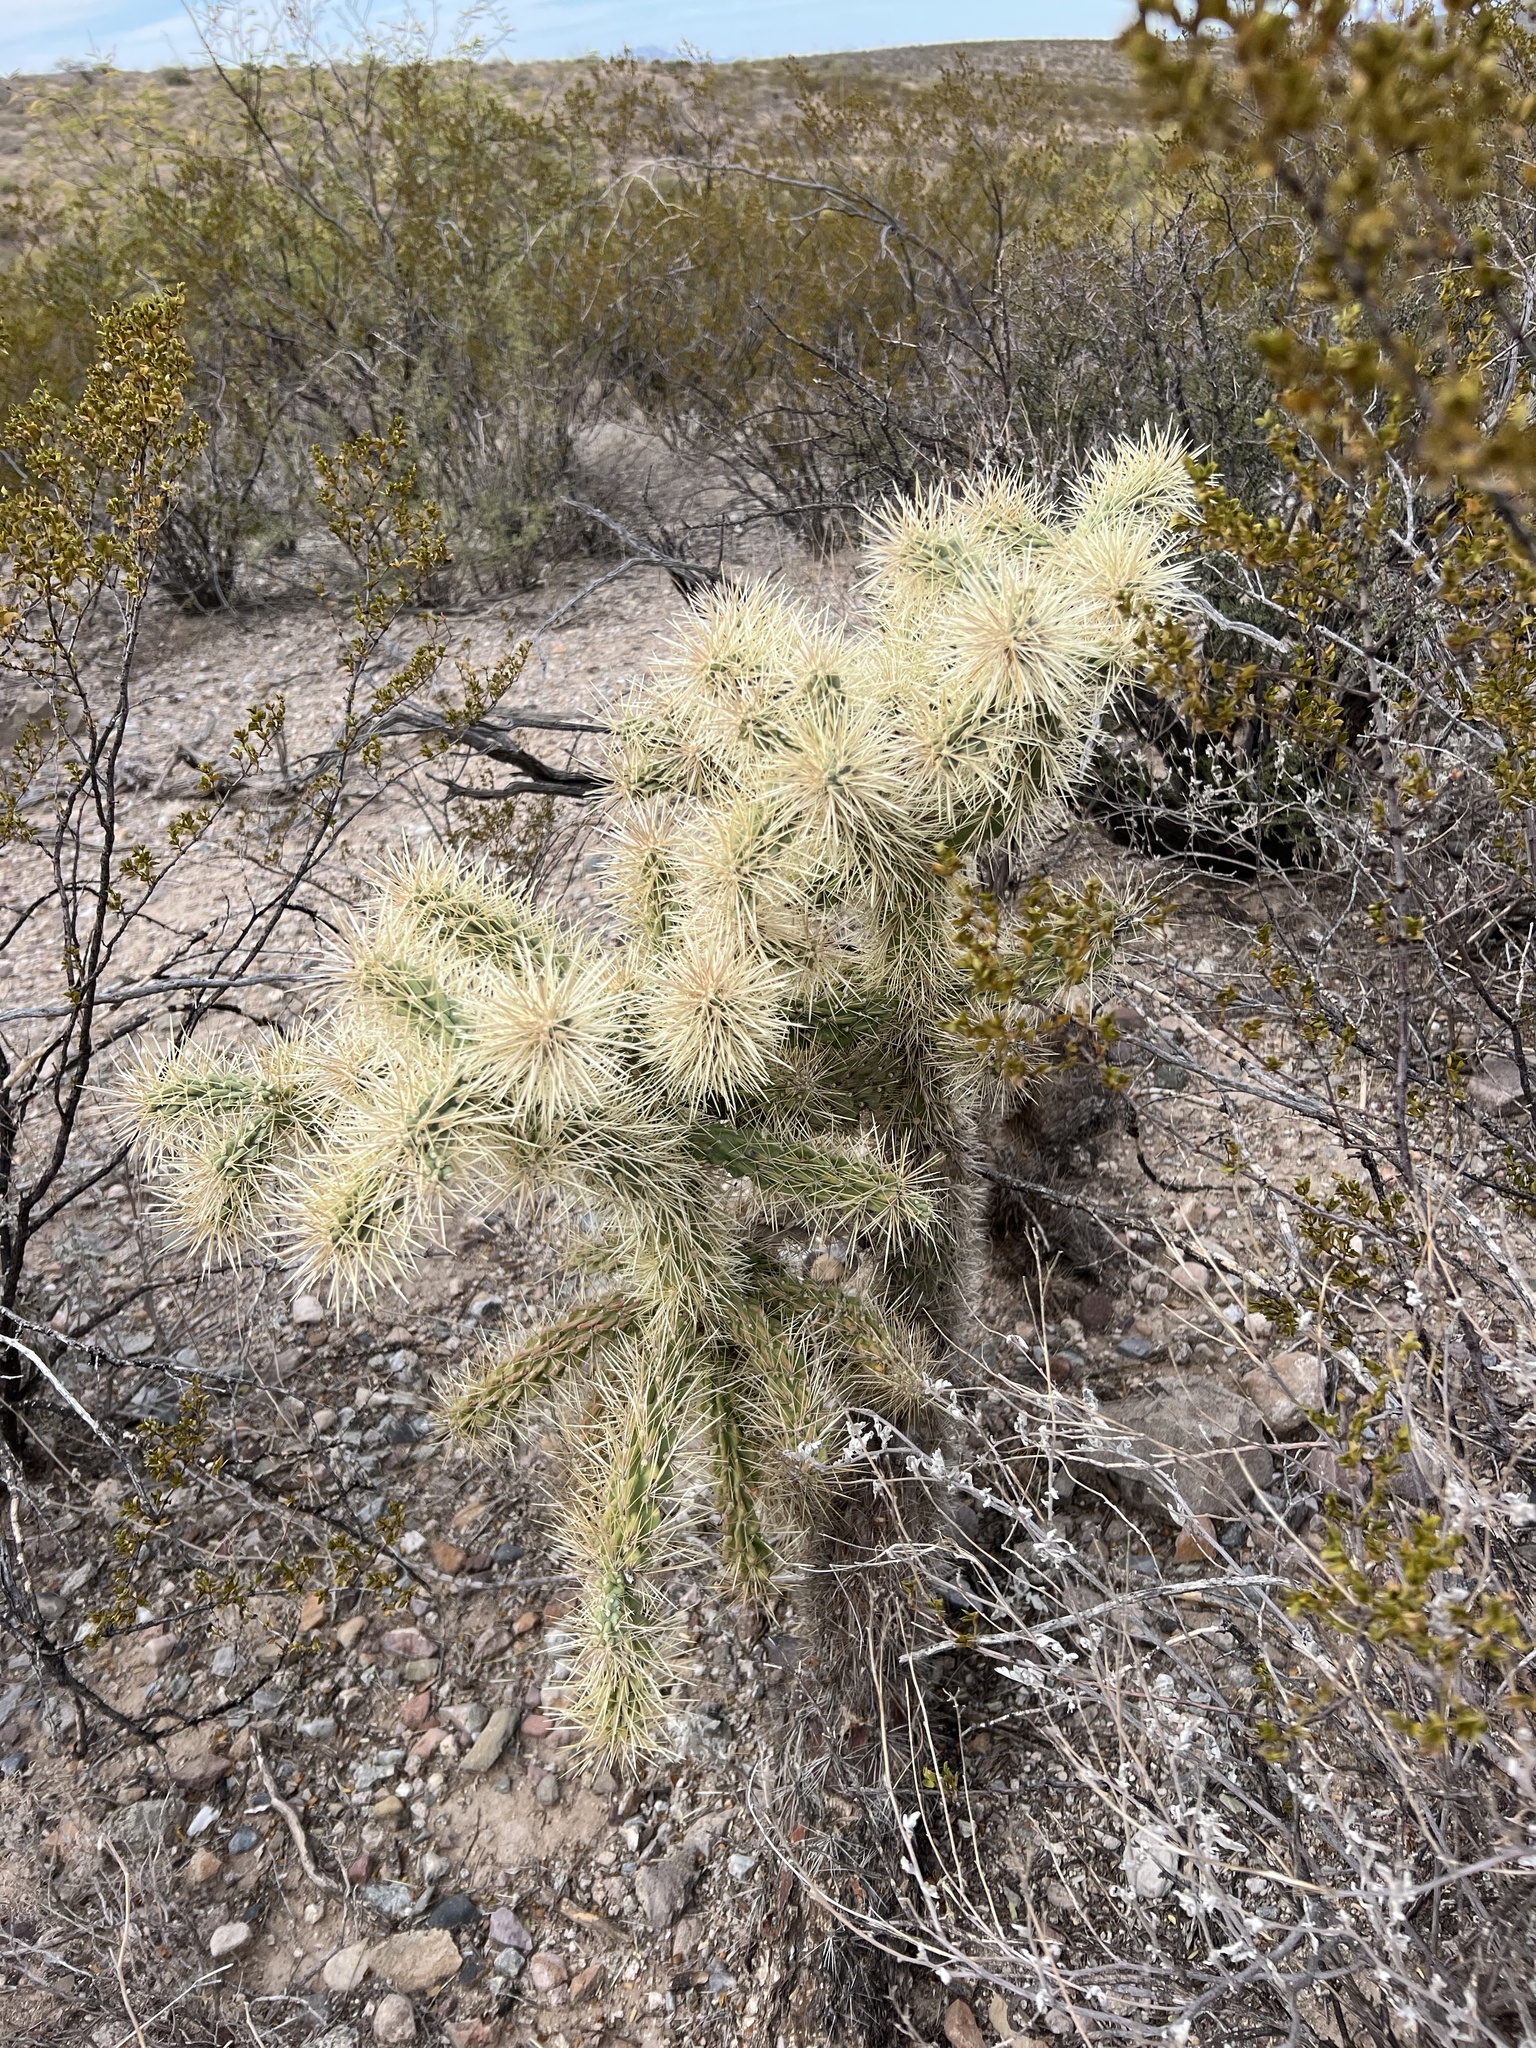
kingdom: Plantae
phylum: Tracheophyta
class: Magnoliopsida
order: Caryophyllales
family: Cactaceae
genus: Cylindropuntia
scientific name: Cylindropuntia fulgida
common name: Jumping cholla
